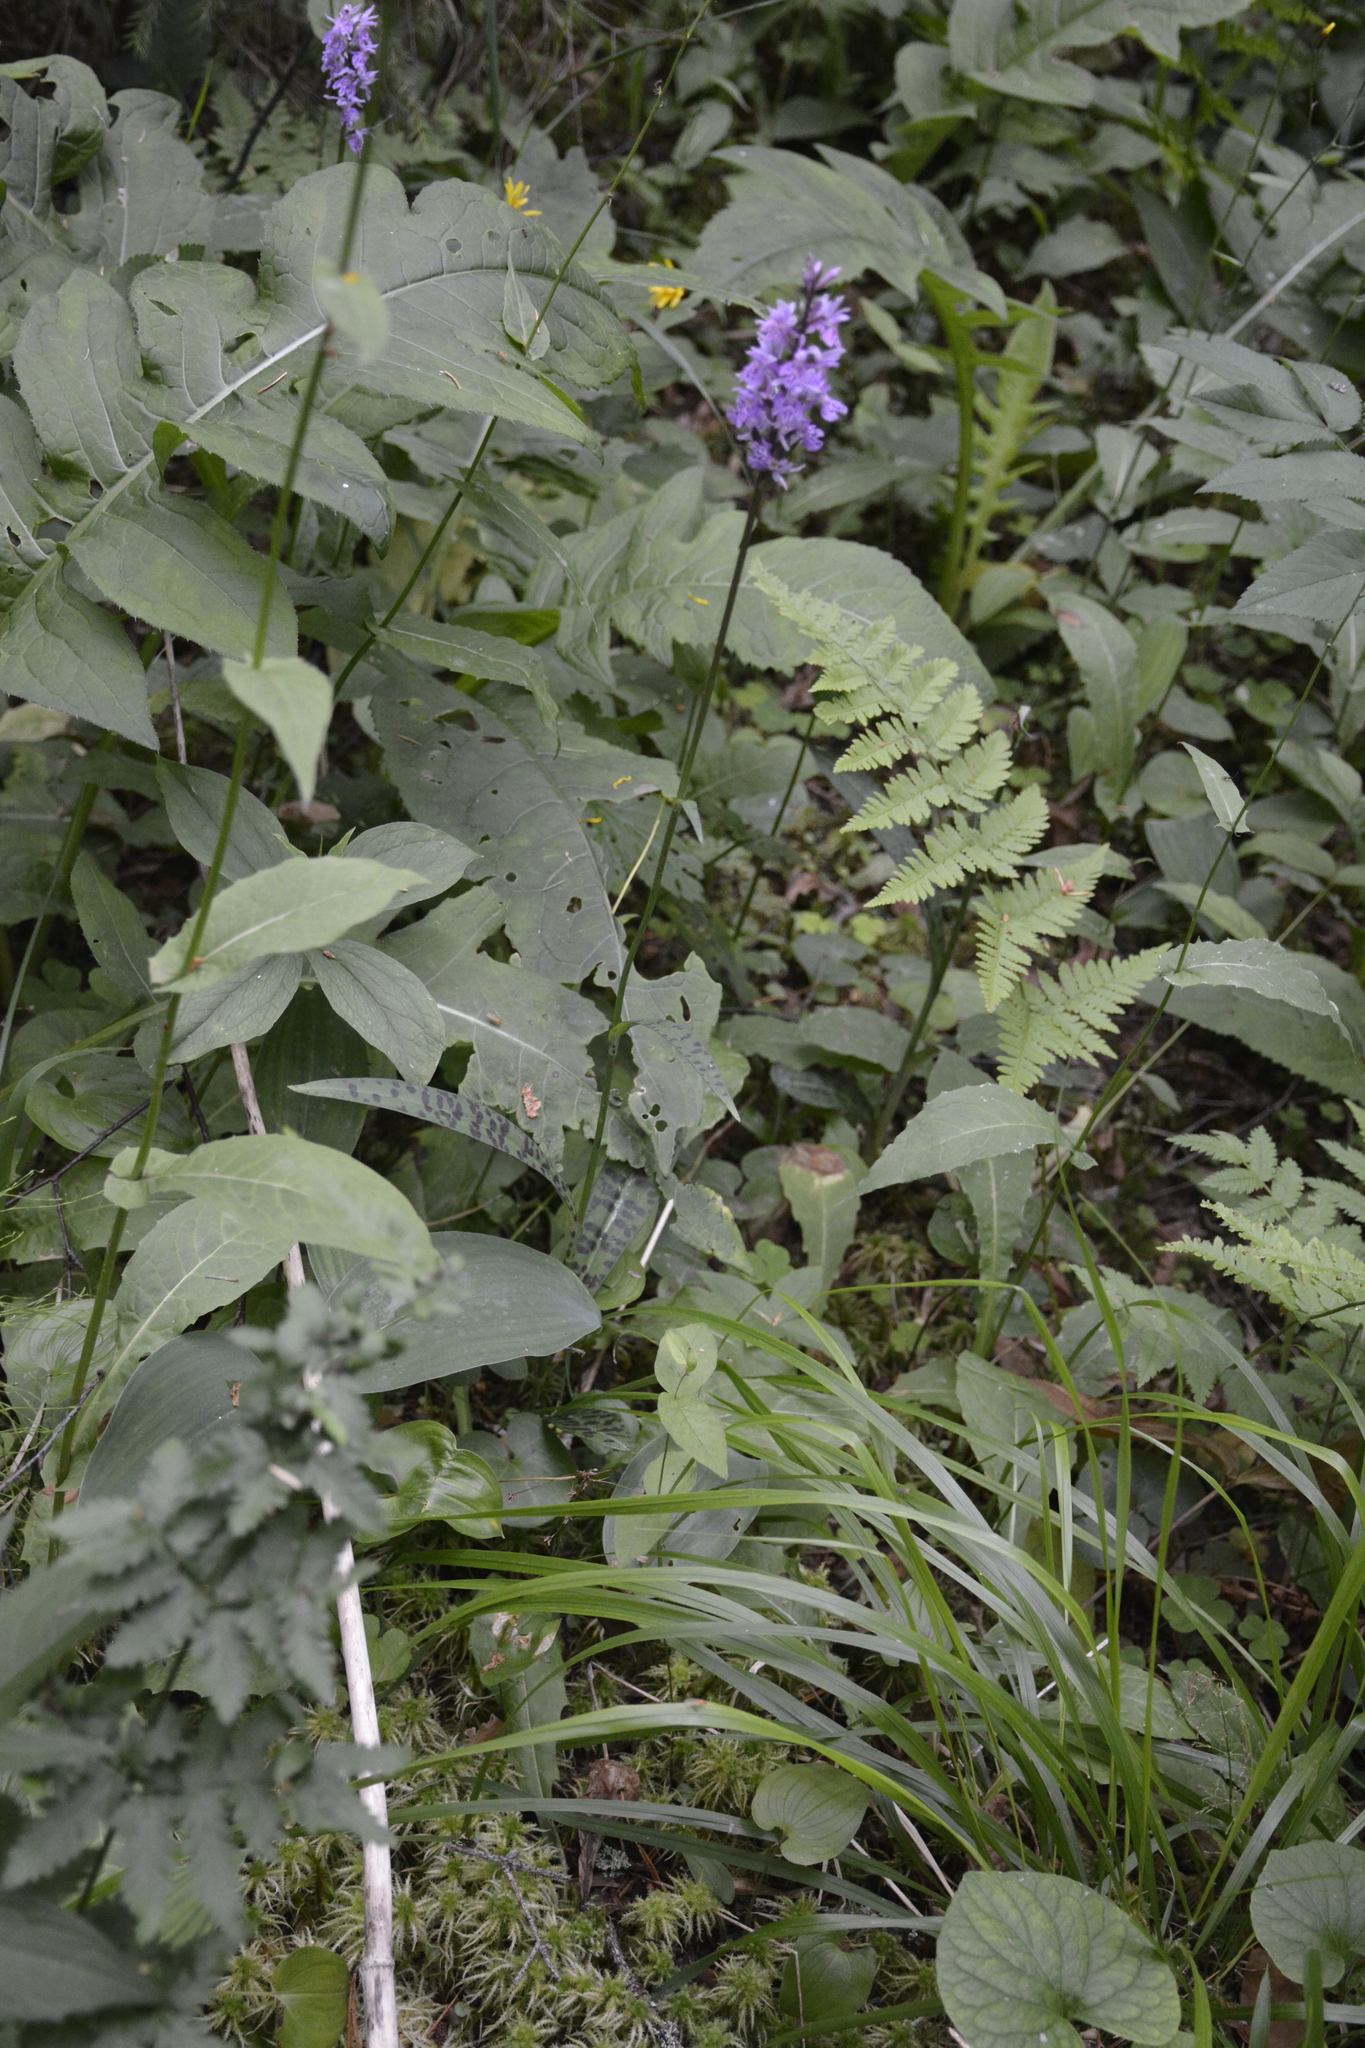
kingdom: Plantae
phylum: Tracheophyta
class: Liliopsida
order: Asparagales
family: Orchidaceae
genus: Dactylorhiza
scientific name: Dactylorhiza maculata
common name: Heath spotted-orchid
